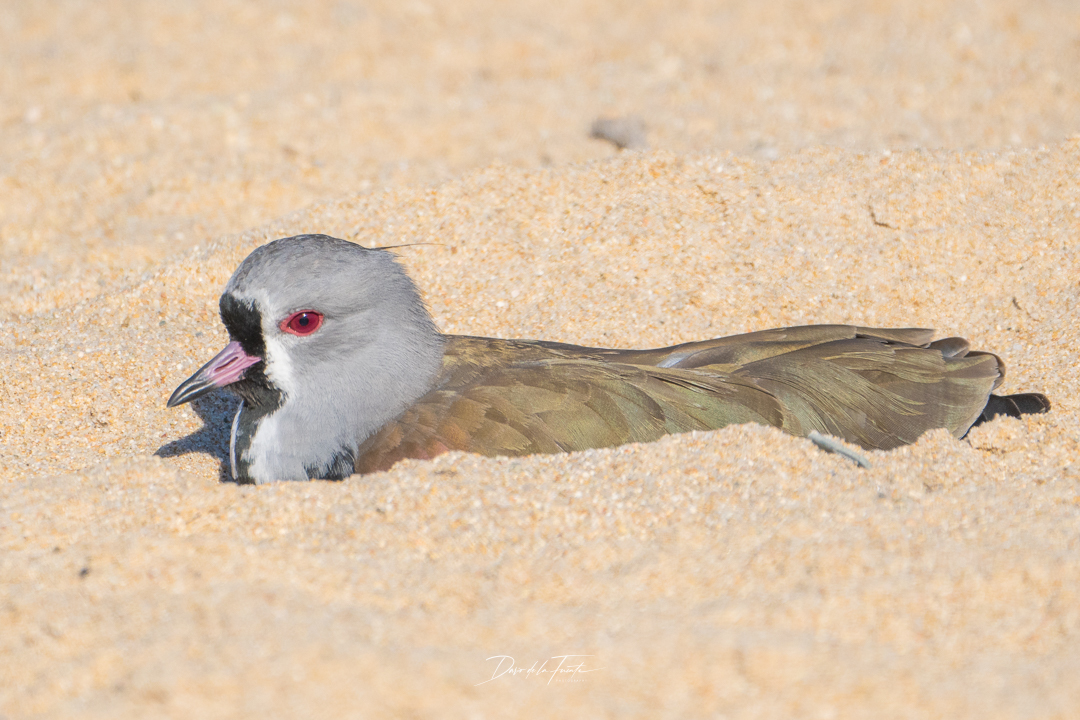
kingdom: Animalia
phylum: Chordata
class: Aves
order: Charadriiformes
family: Charadriidae
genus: Vanellus
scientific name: Vanellus chilensis
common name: Southern lapwing
